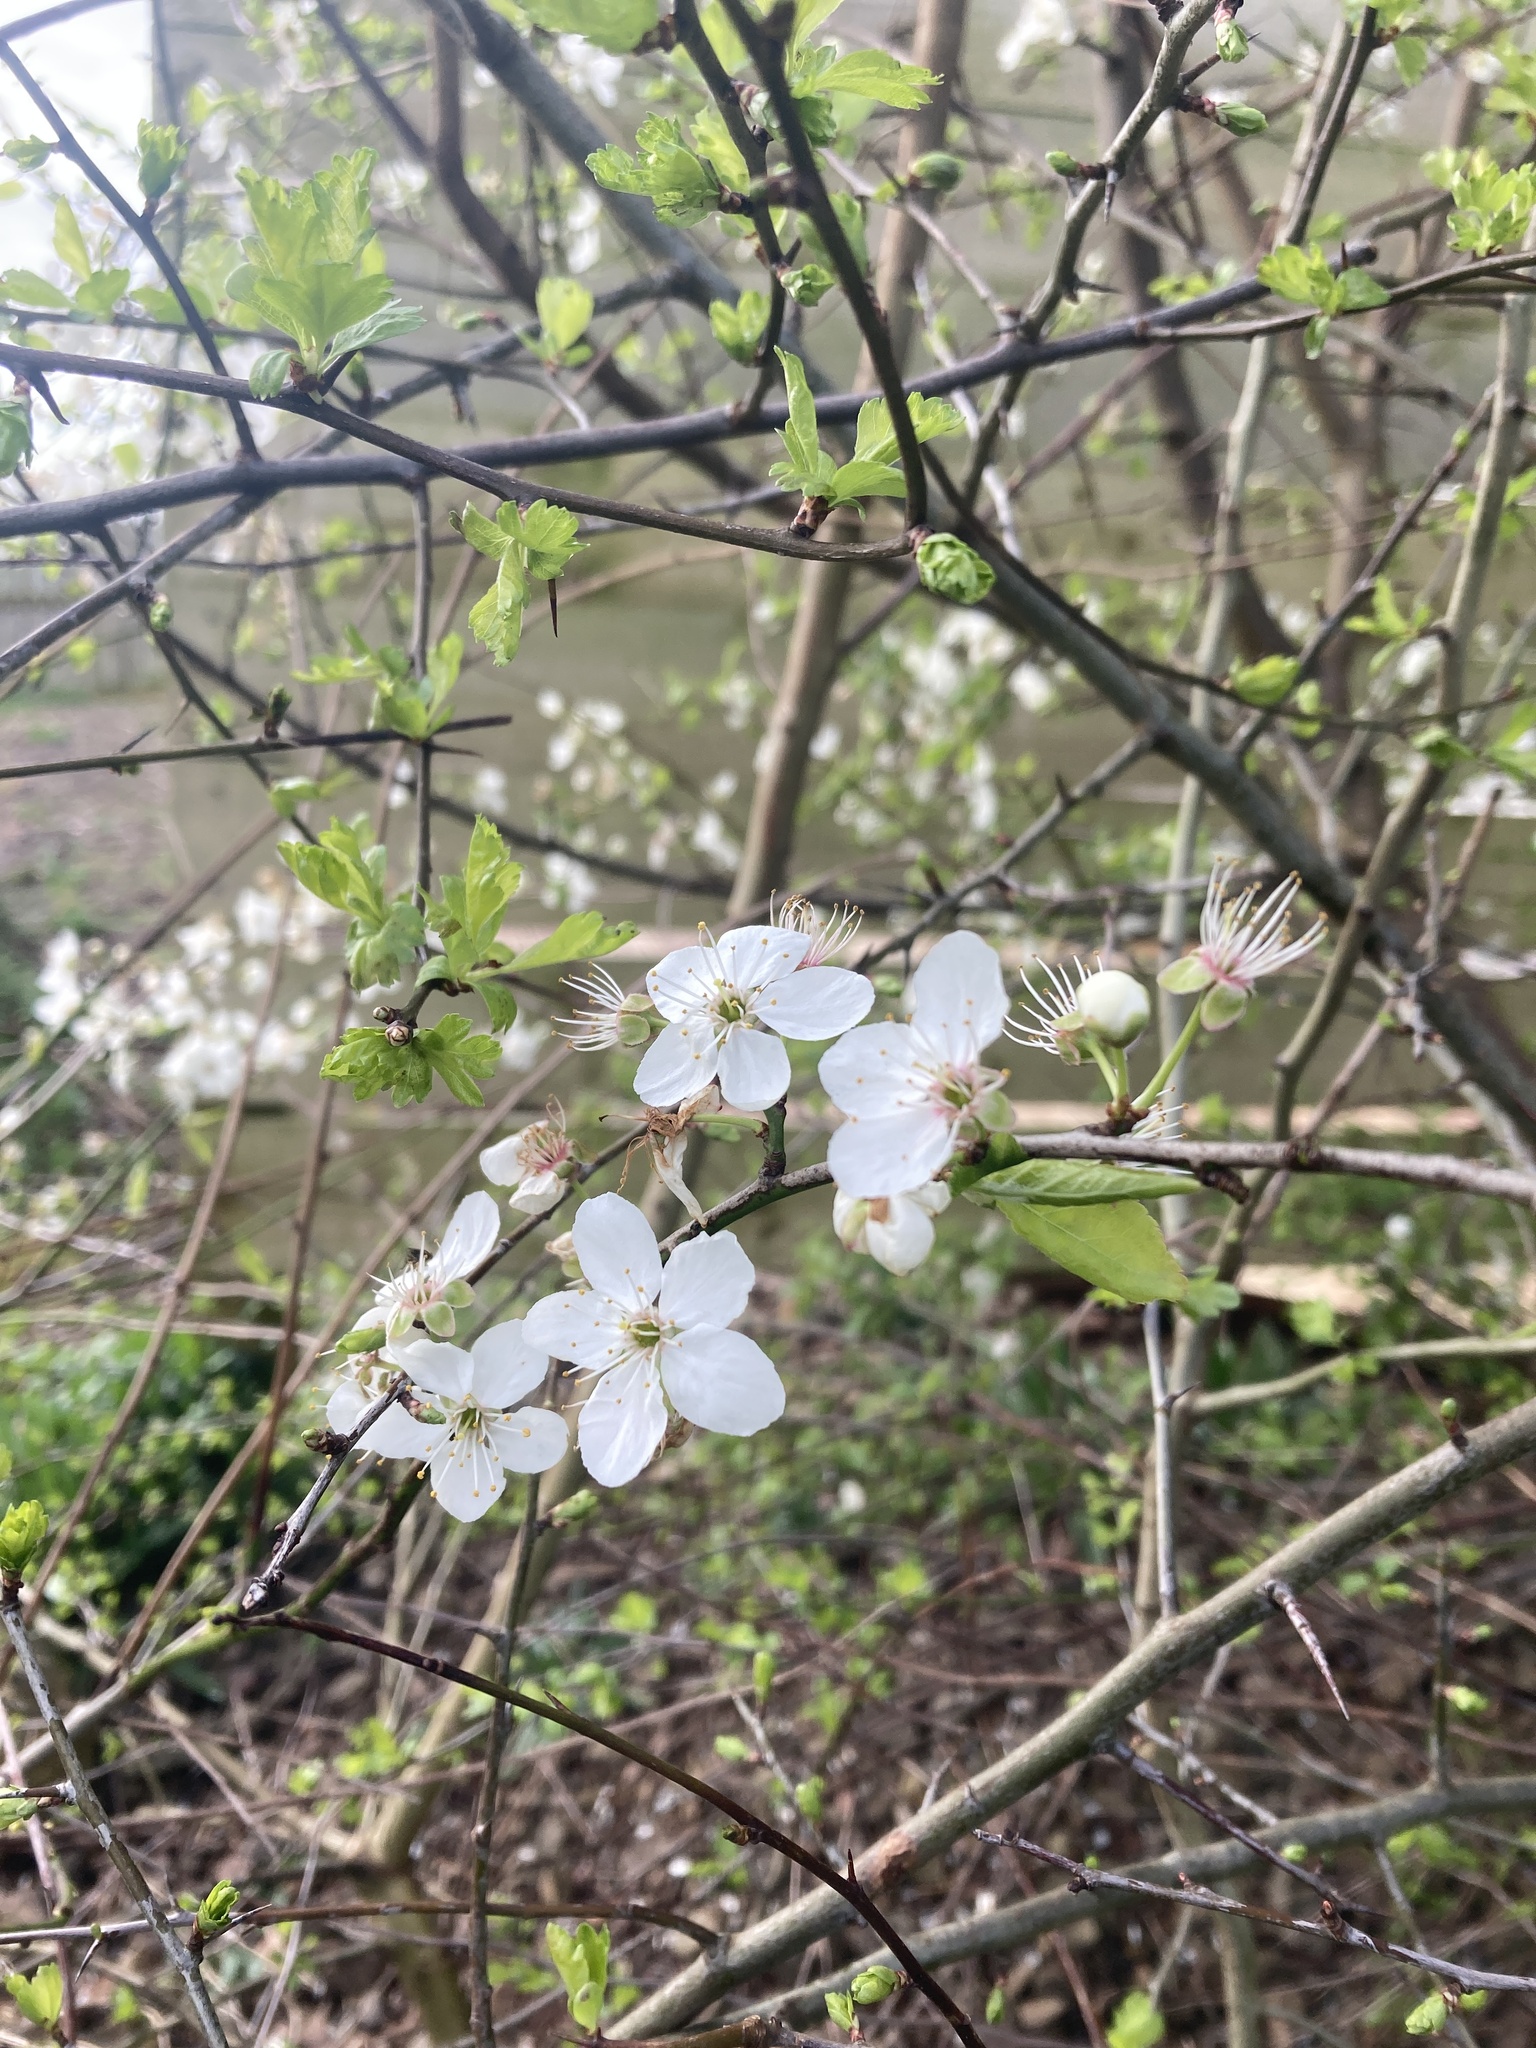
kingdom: Plantae
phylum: Tracheophyta
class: Magnoliopsida
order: Rosales
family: Rosaceae
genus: Crataegus
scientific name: Crataegus monogyna
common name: Hawthorn
